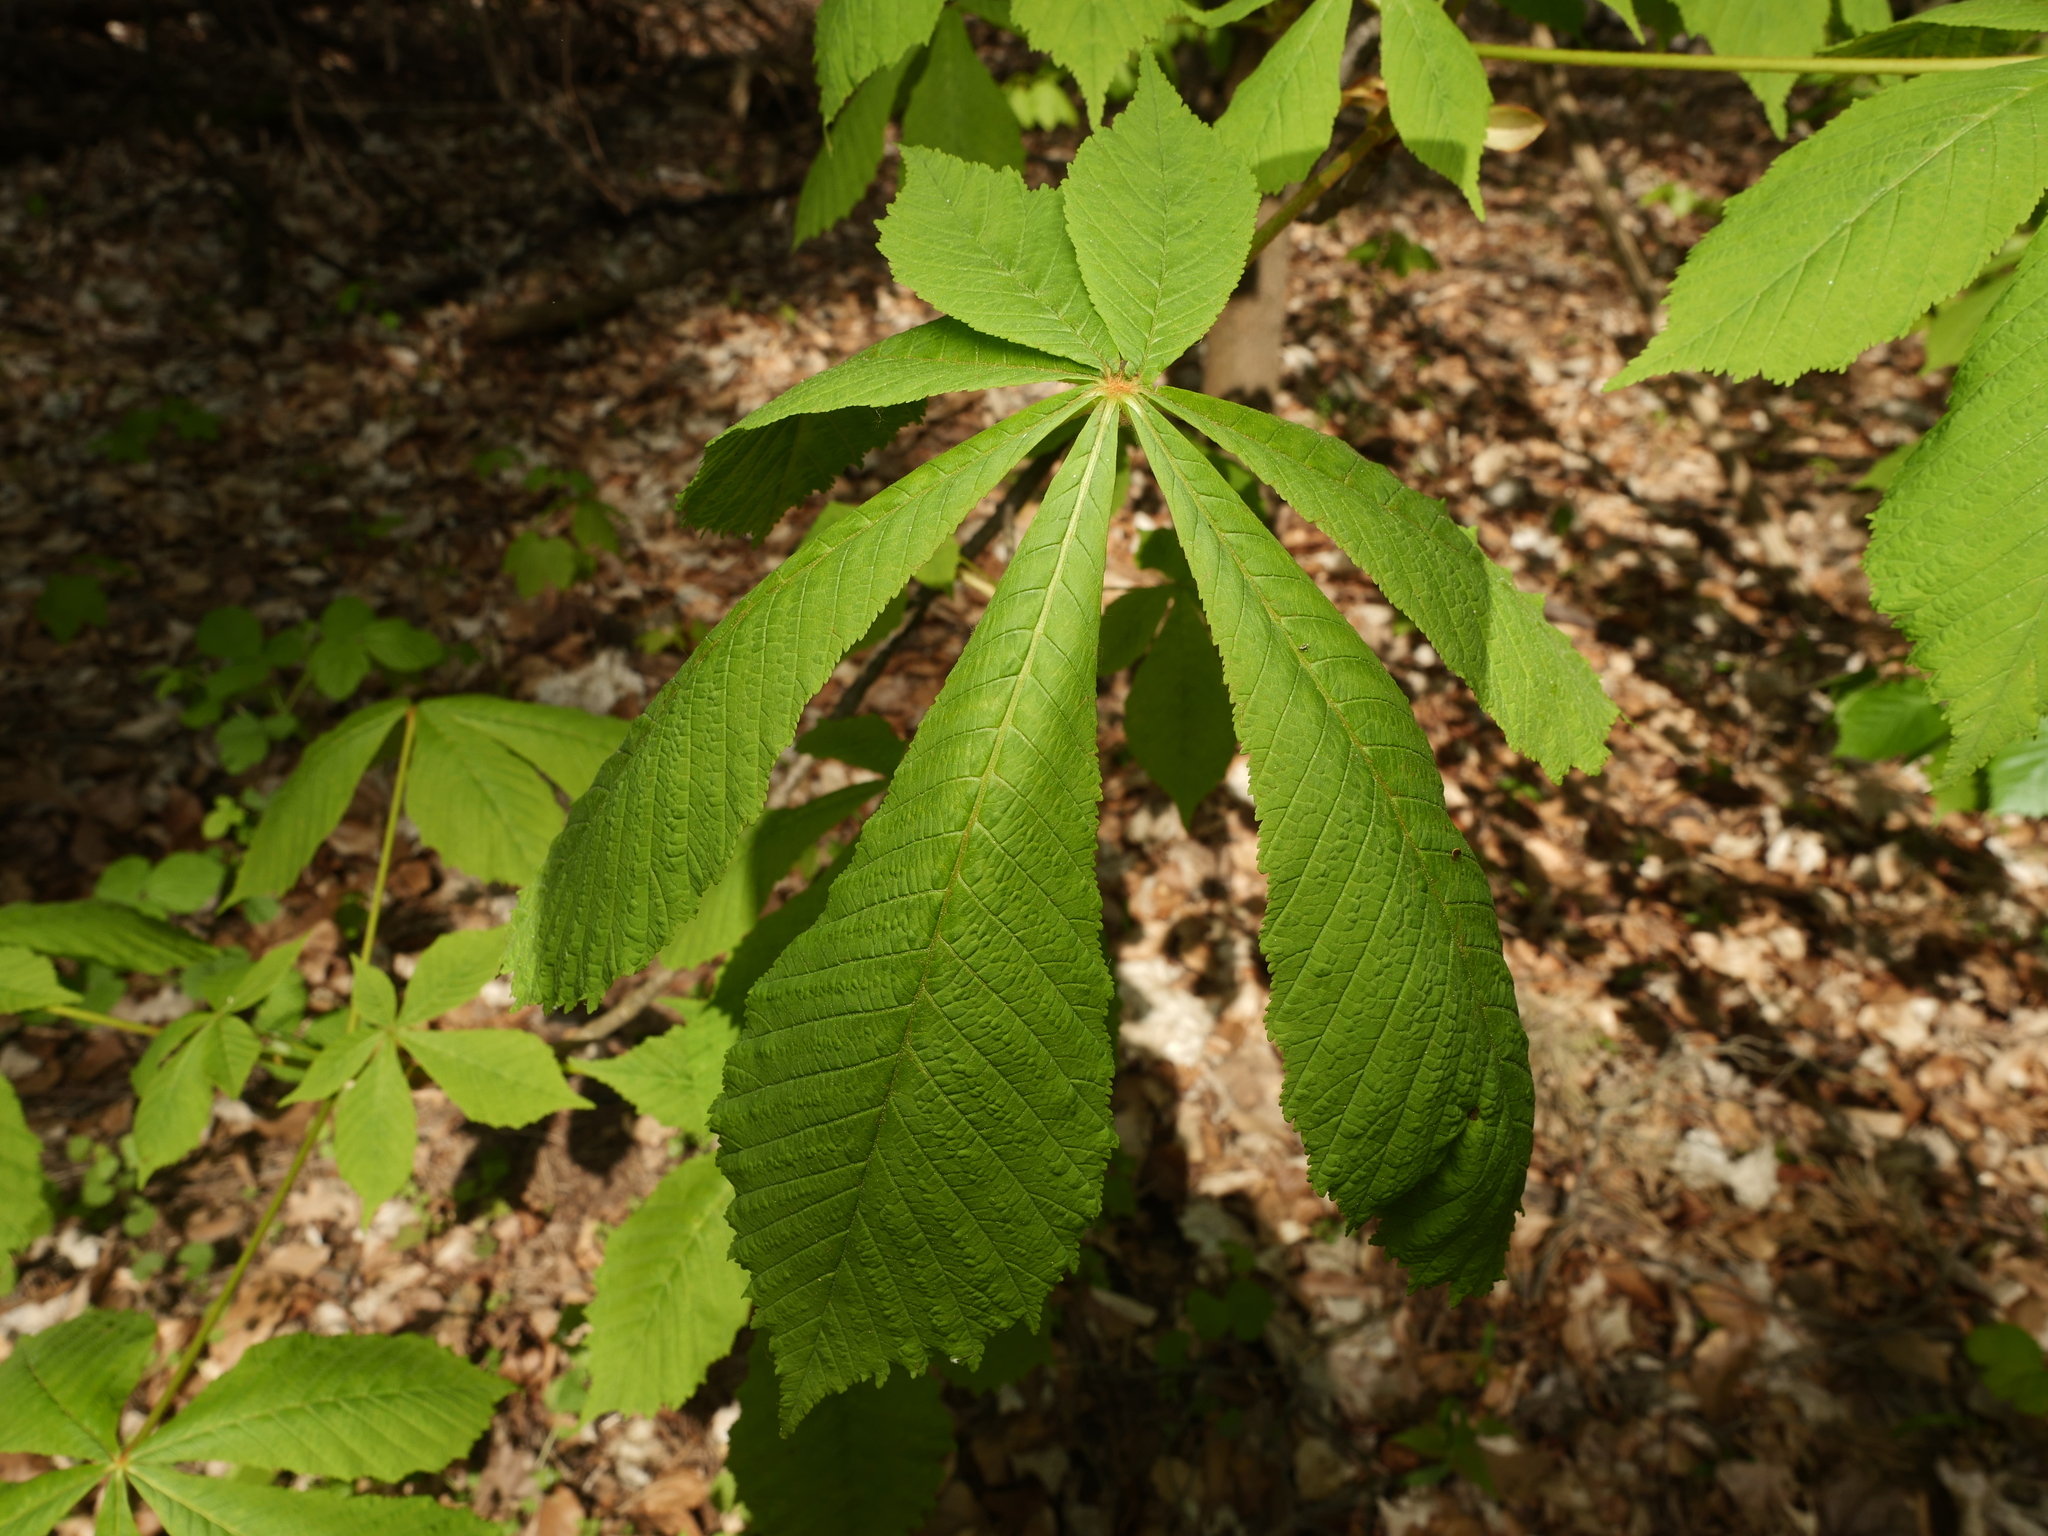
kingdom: Plantae
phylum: Tracheophyta
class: Magnoliopsida
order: Sapindales
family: Sapindaceae
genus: Aesculus
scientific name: Aesculus hippocastanum
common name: Horse-chestnut
